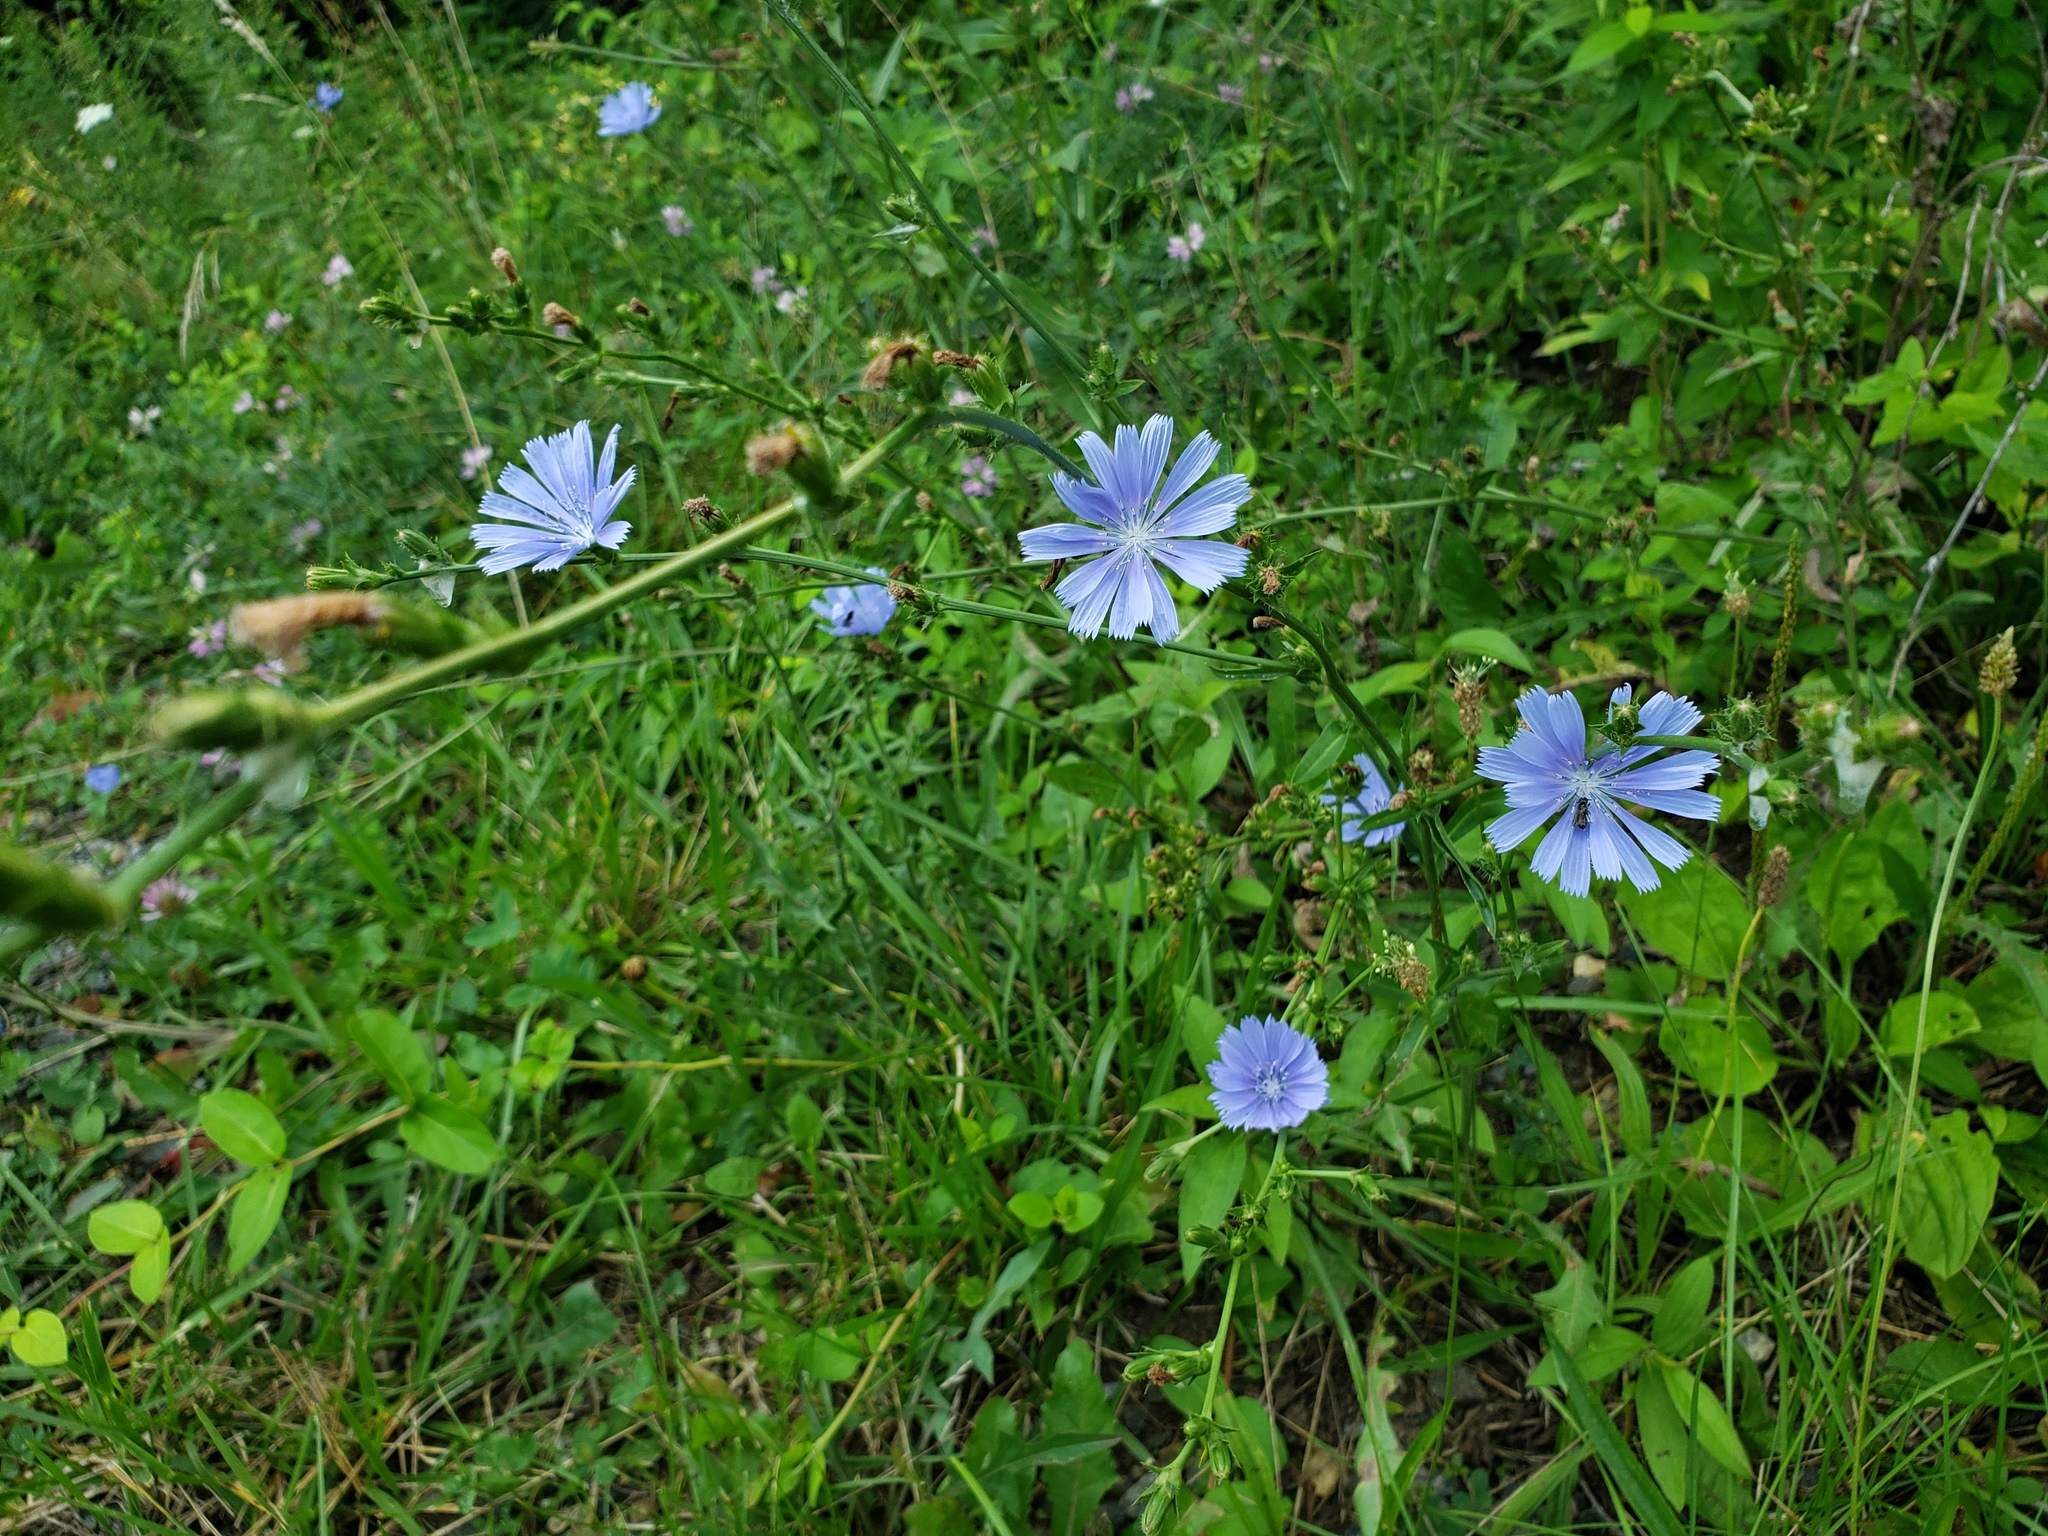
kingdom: Plantae
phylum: Tracheophyta
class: Magnoliopsida
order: Asterales
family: Asteraceae
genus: Cichorium
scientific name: Cichorium intybus
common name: Chicory
